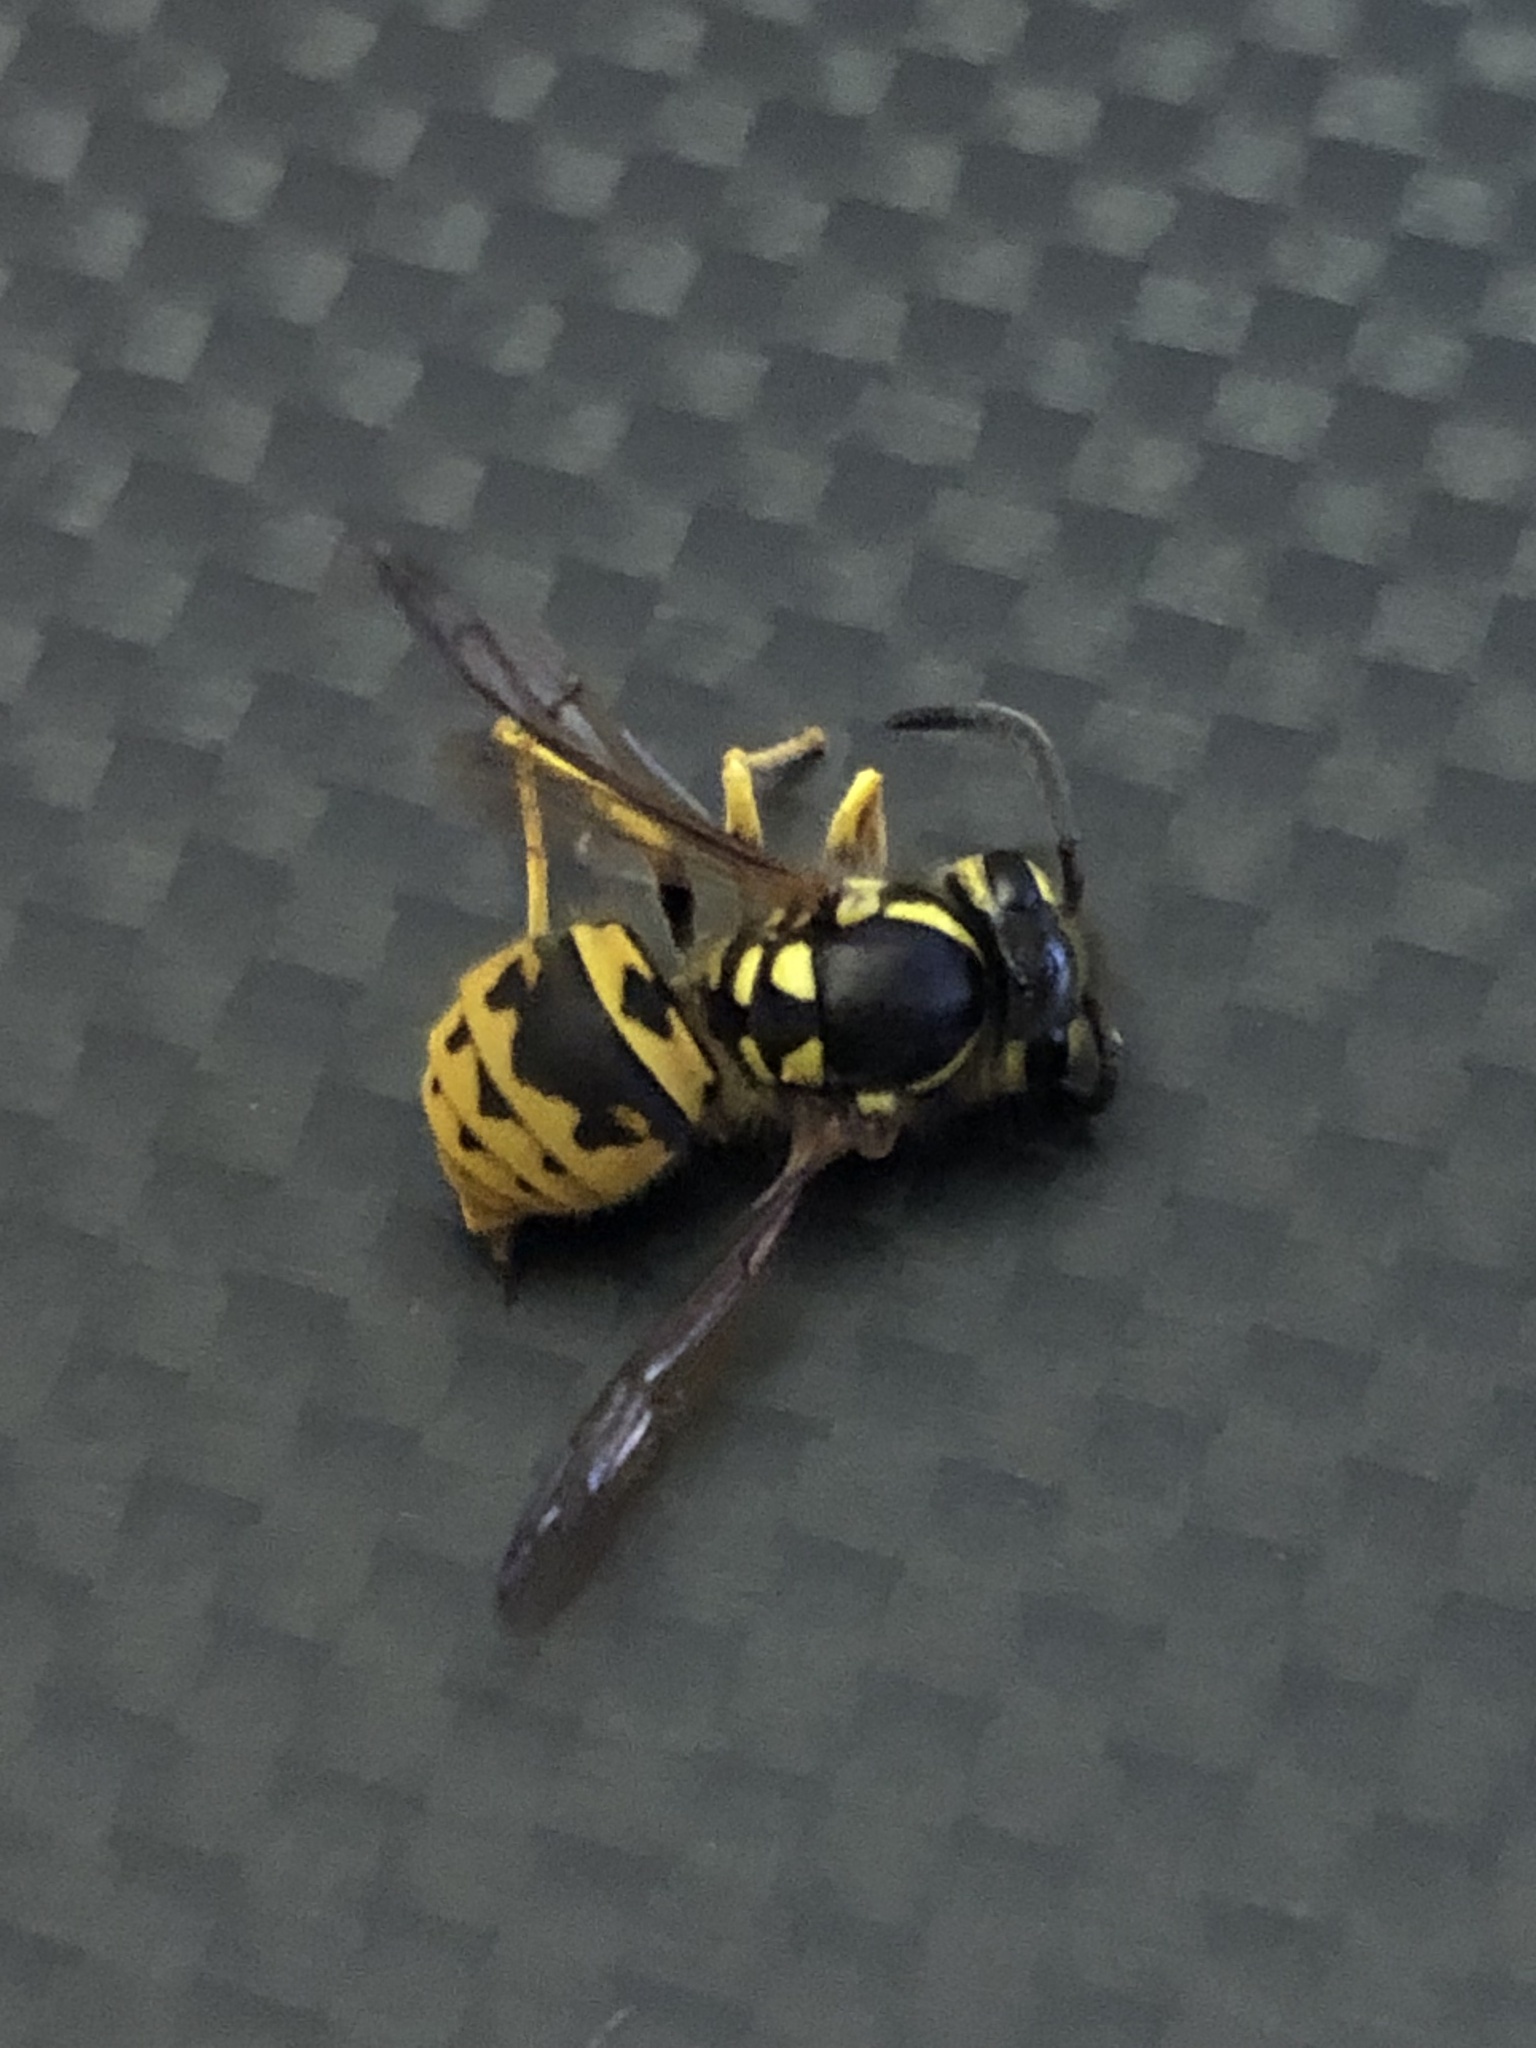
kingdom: Animalia
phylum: Arthropoda
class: Insecta
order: Hymenoptera
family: Vespidae
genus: Vespula
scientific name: Vespula germanica
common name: German wasp
